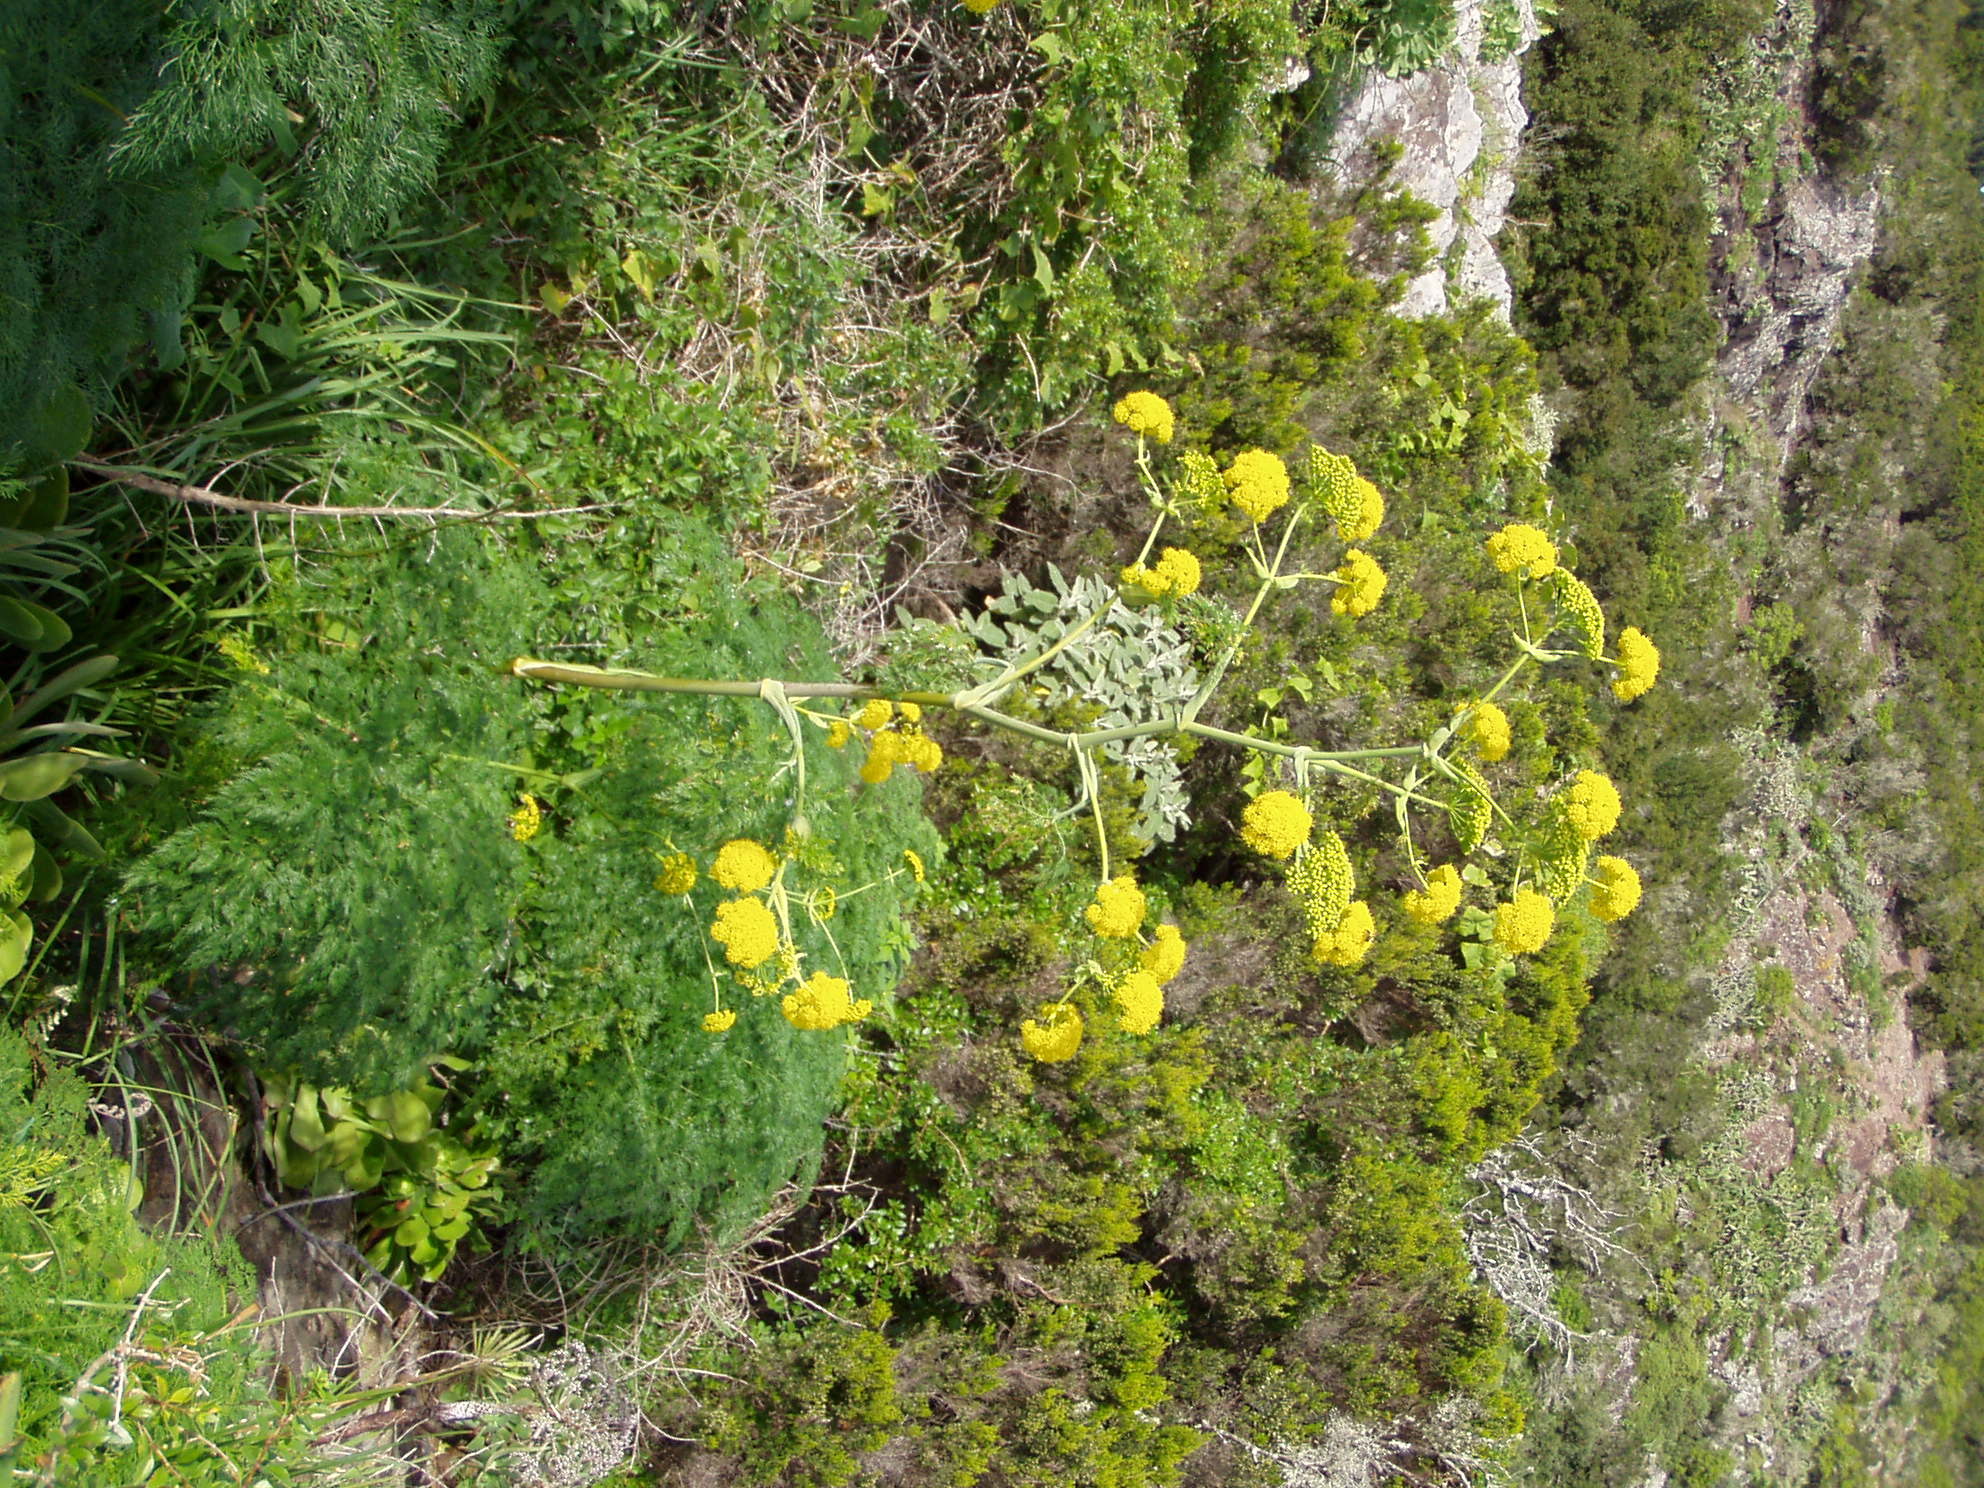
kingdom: Plantae
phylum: Tracheophyta
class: Magnoliopsida
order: Apiales
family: Apiaceae
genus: Ferula
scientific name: Ferula communis
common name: Giant fennel
